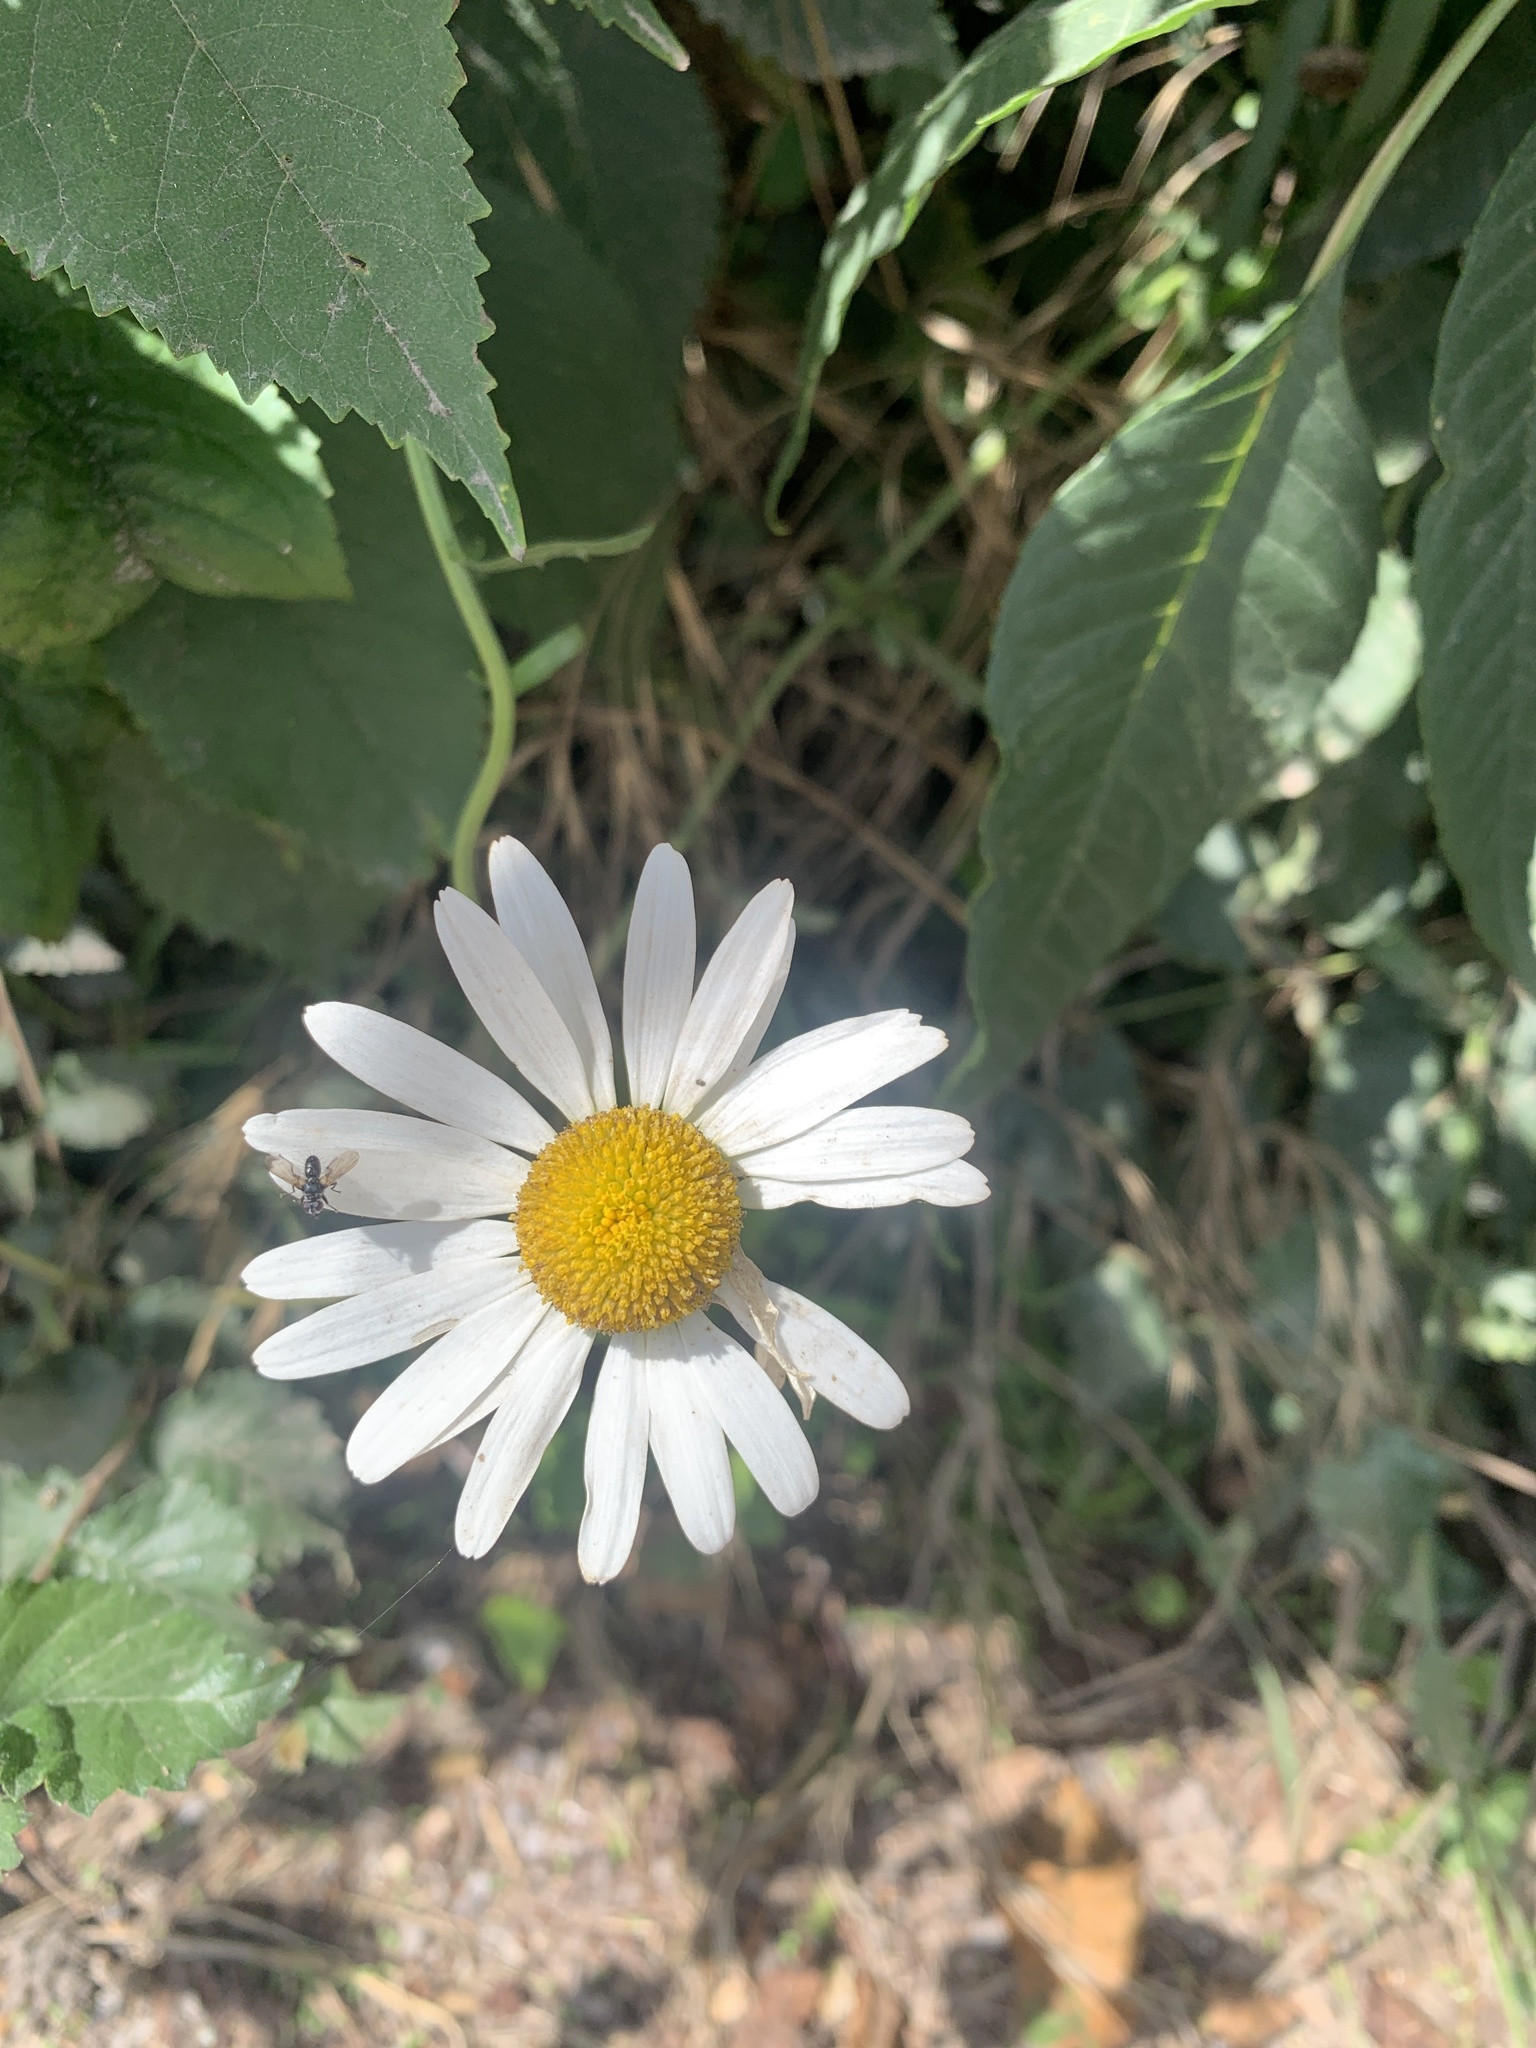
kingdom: Plantae
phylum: Tracheophyta
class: Magnoliopsida
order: Asterales
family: Asteraceae
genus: Bellis
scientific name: Bellis perennis
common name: Lawndaisy
